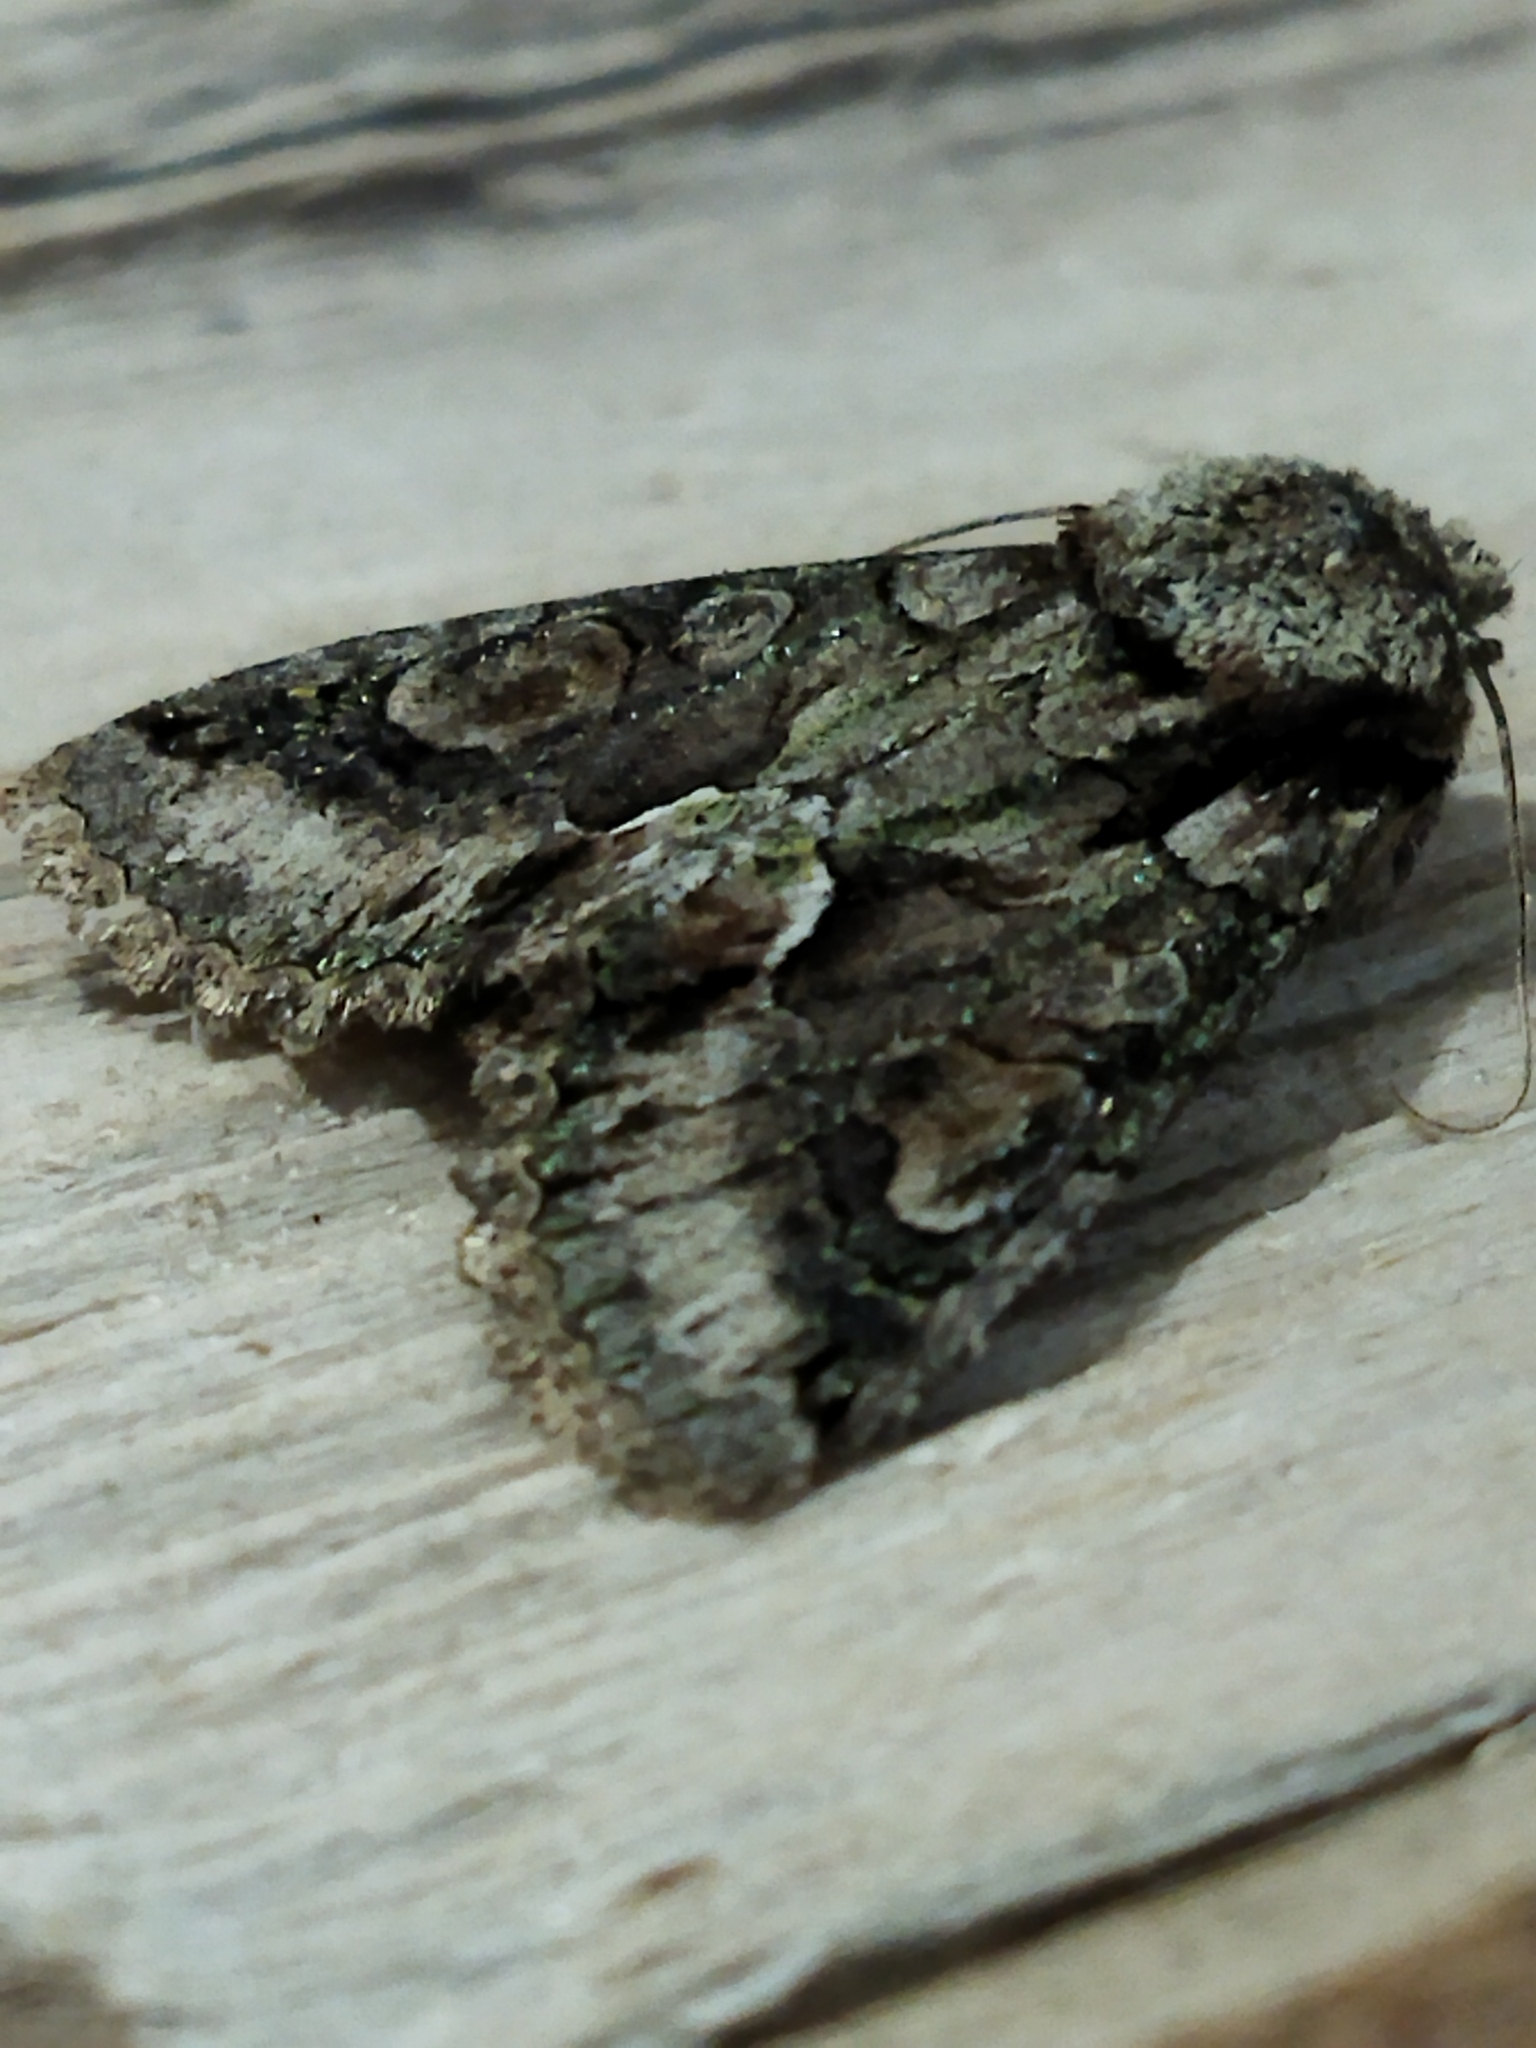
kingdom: Animalia
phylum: Arthropoda
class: Insecta
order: Lepidoptera
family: Noctuidae
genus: Allophyes
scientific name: Allophyes oxyacanthae
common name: Green-brindled crescent
